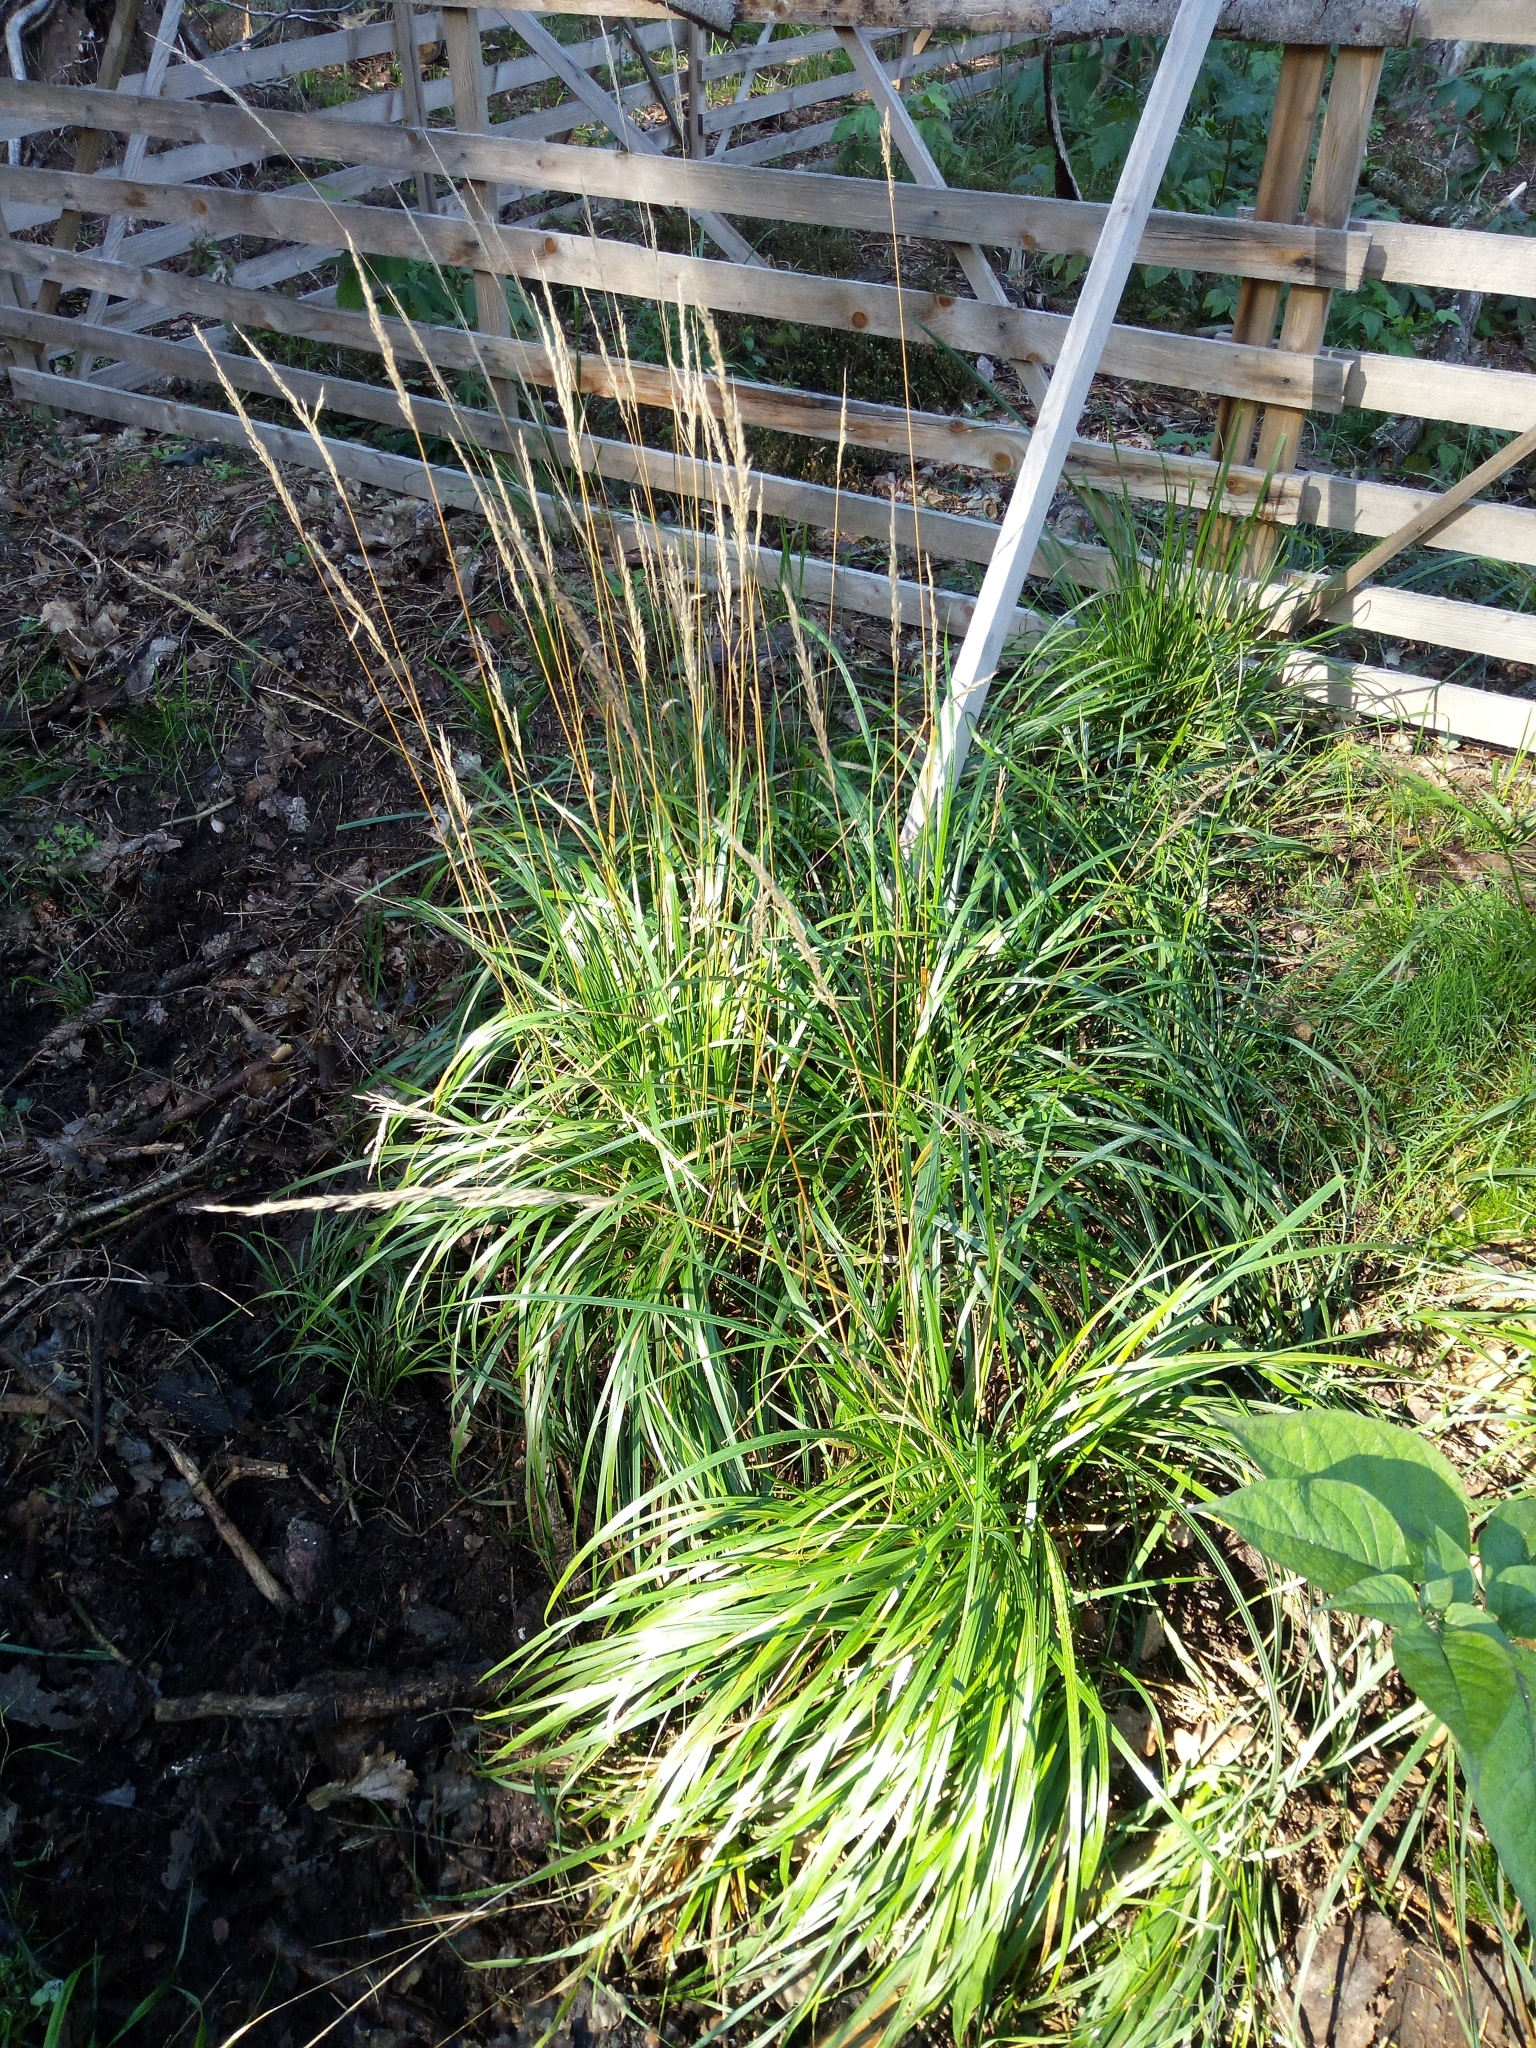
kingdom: Plantae
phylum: Tracheophyta
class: Liliopsida
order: Poales
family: Poaceae
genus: Calamagrostis
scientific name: Calamagrostis arundinacea
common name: Metskastik
